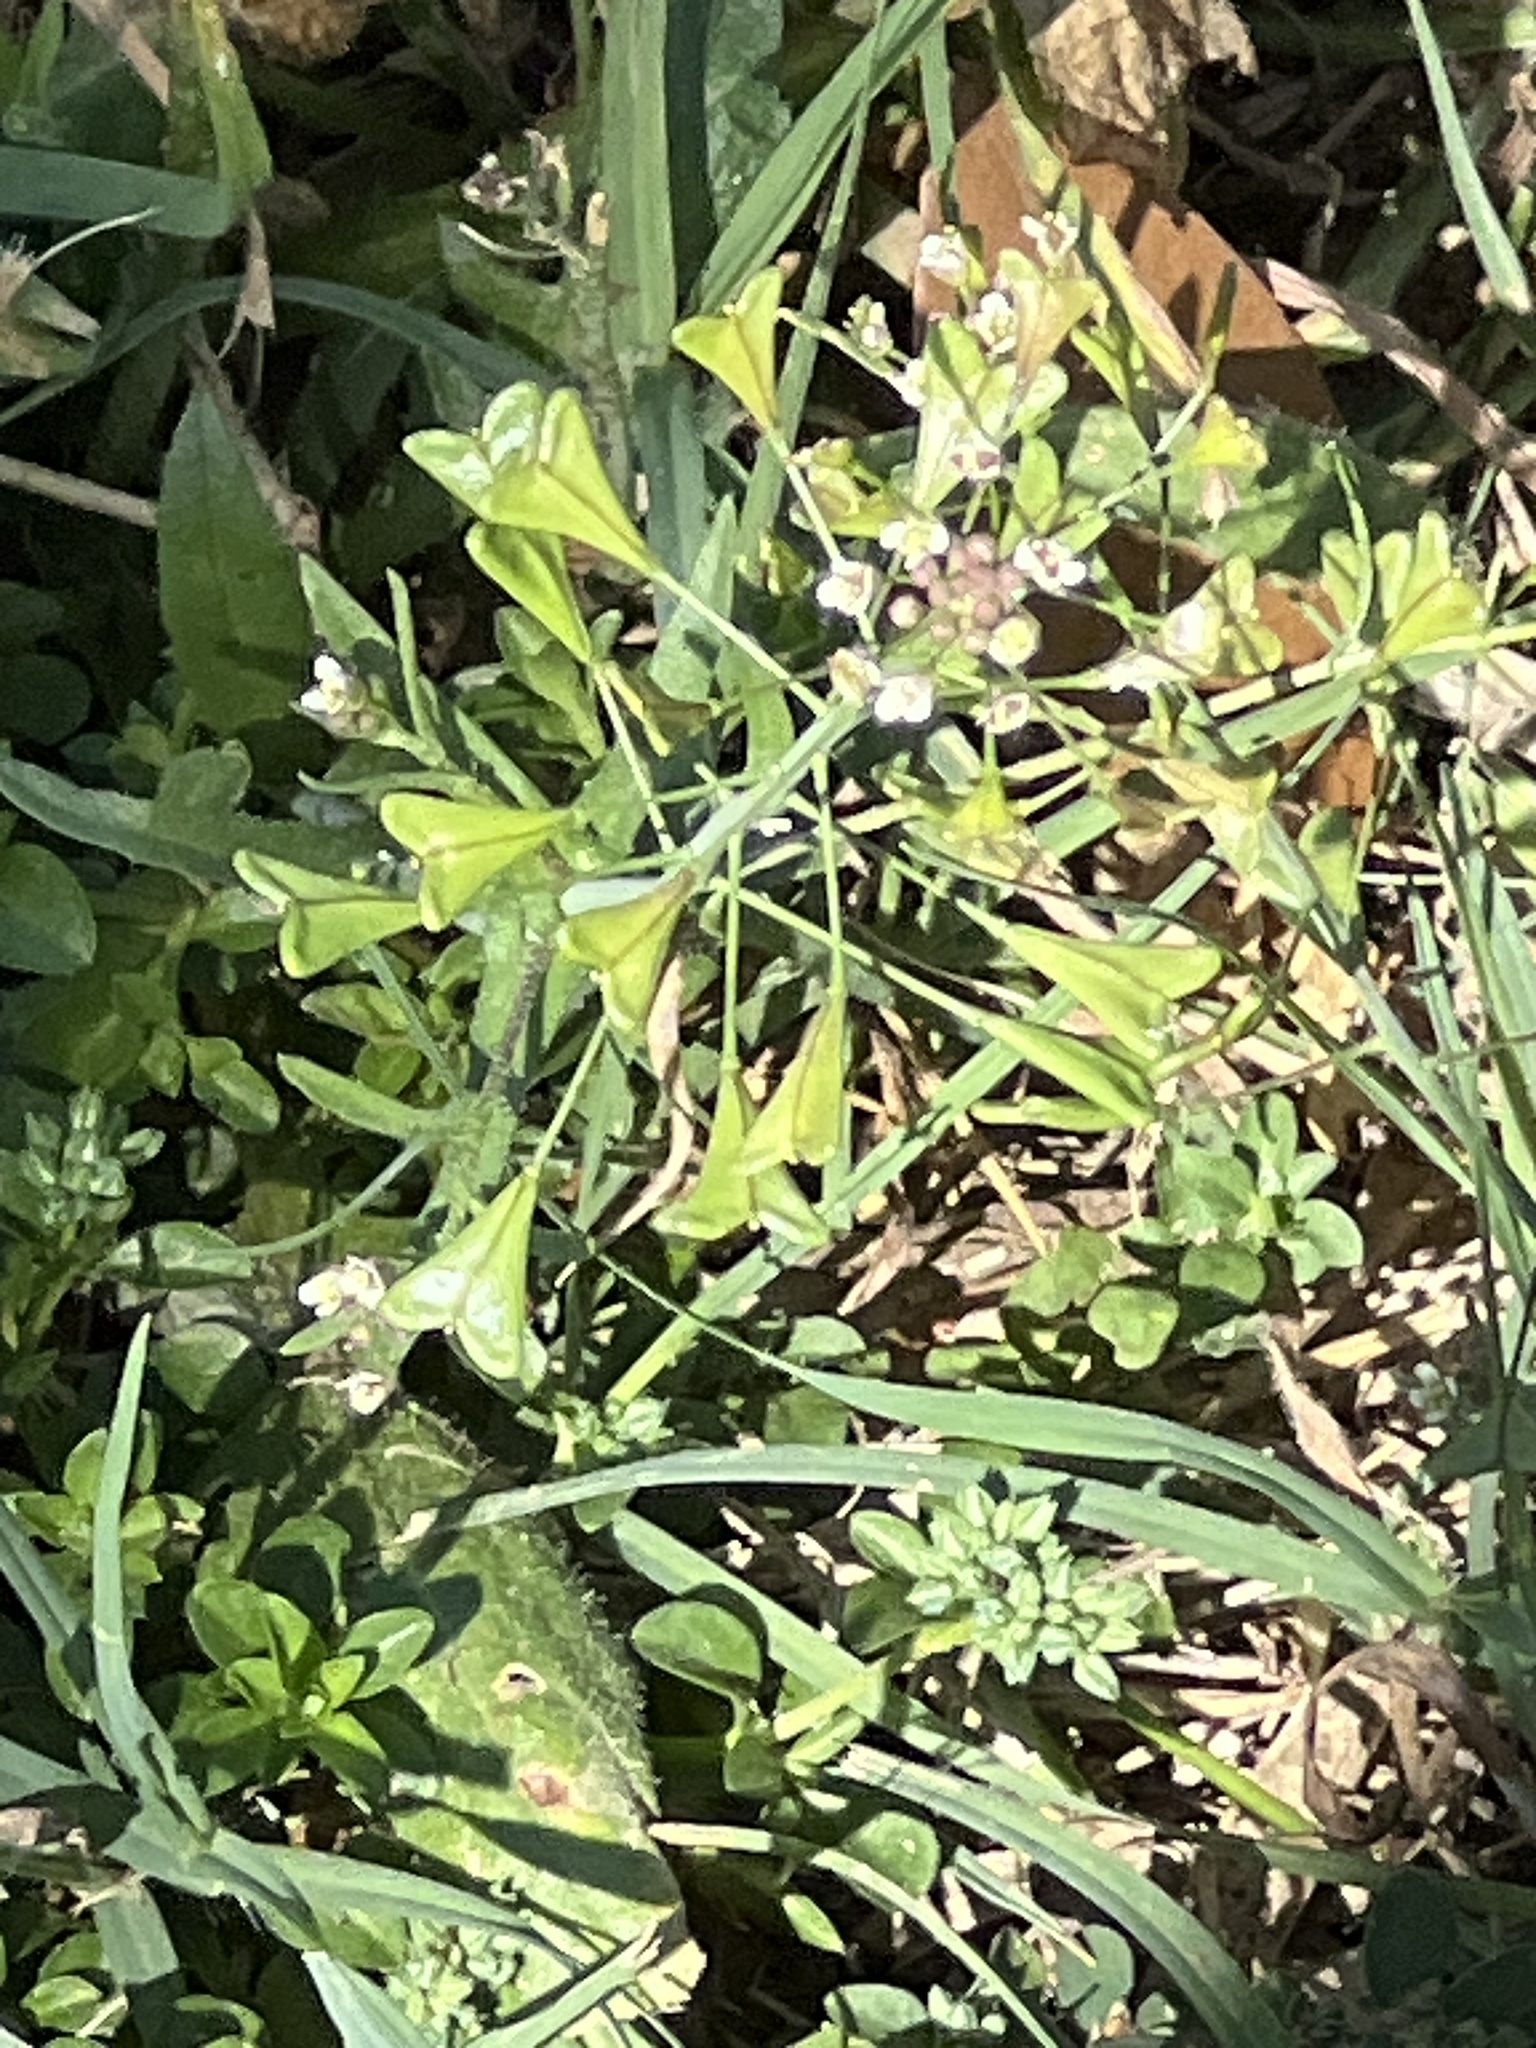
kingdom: Plantae
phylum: Tracheophyta
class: Magnoliopsida
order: Brassicales
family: Brassicaceae
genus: Capsella
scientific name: Capsella bursa-pastoris
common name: Shepherd's purse
